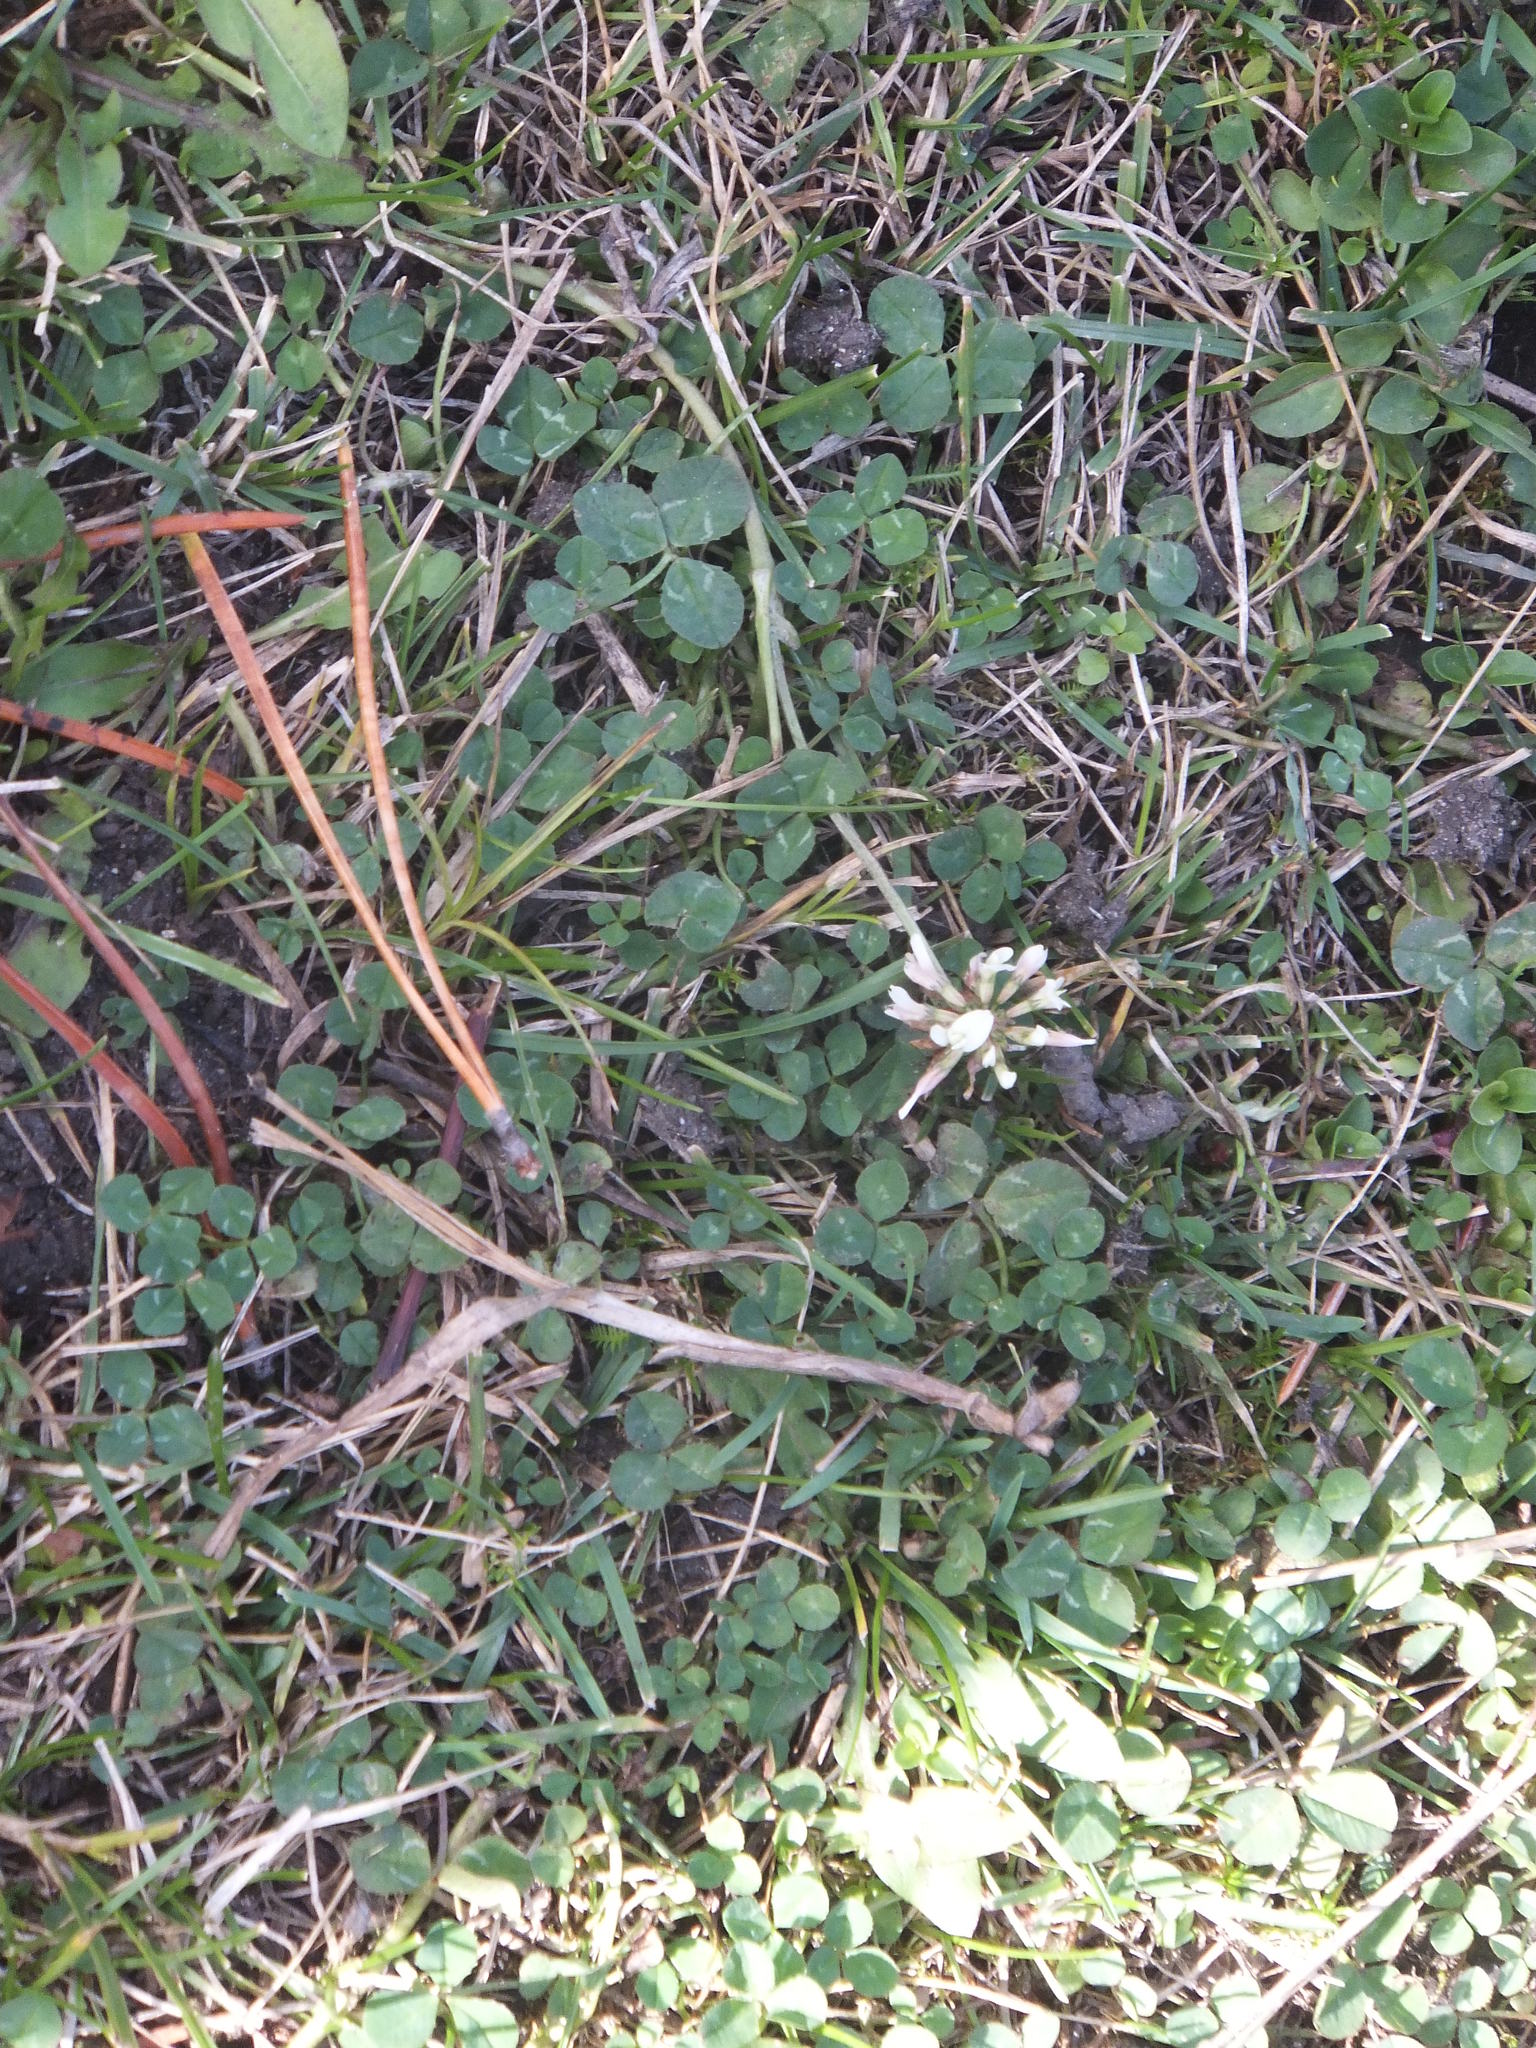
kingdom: Plantae
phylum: Tracheophyta
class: Magnoliopsida
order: Fabales
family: Fabaceae
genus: Trifolium
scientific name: Trifolium repens
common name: White clover
